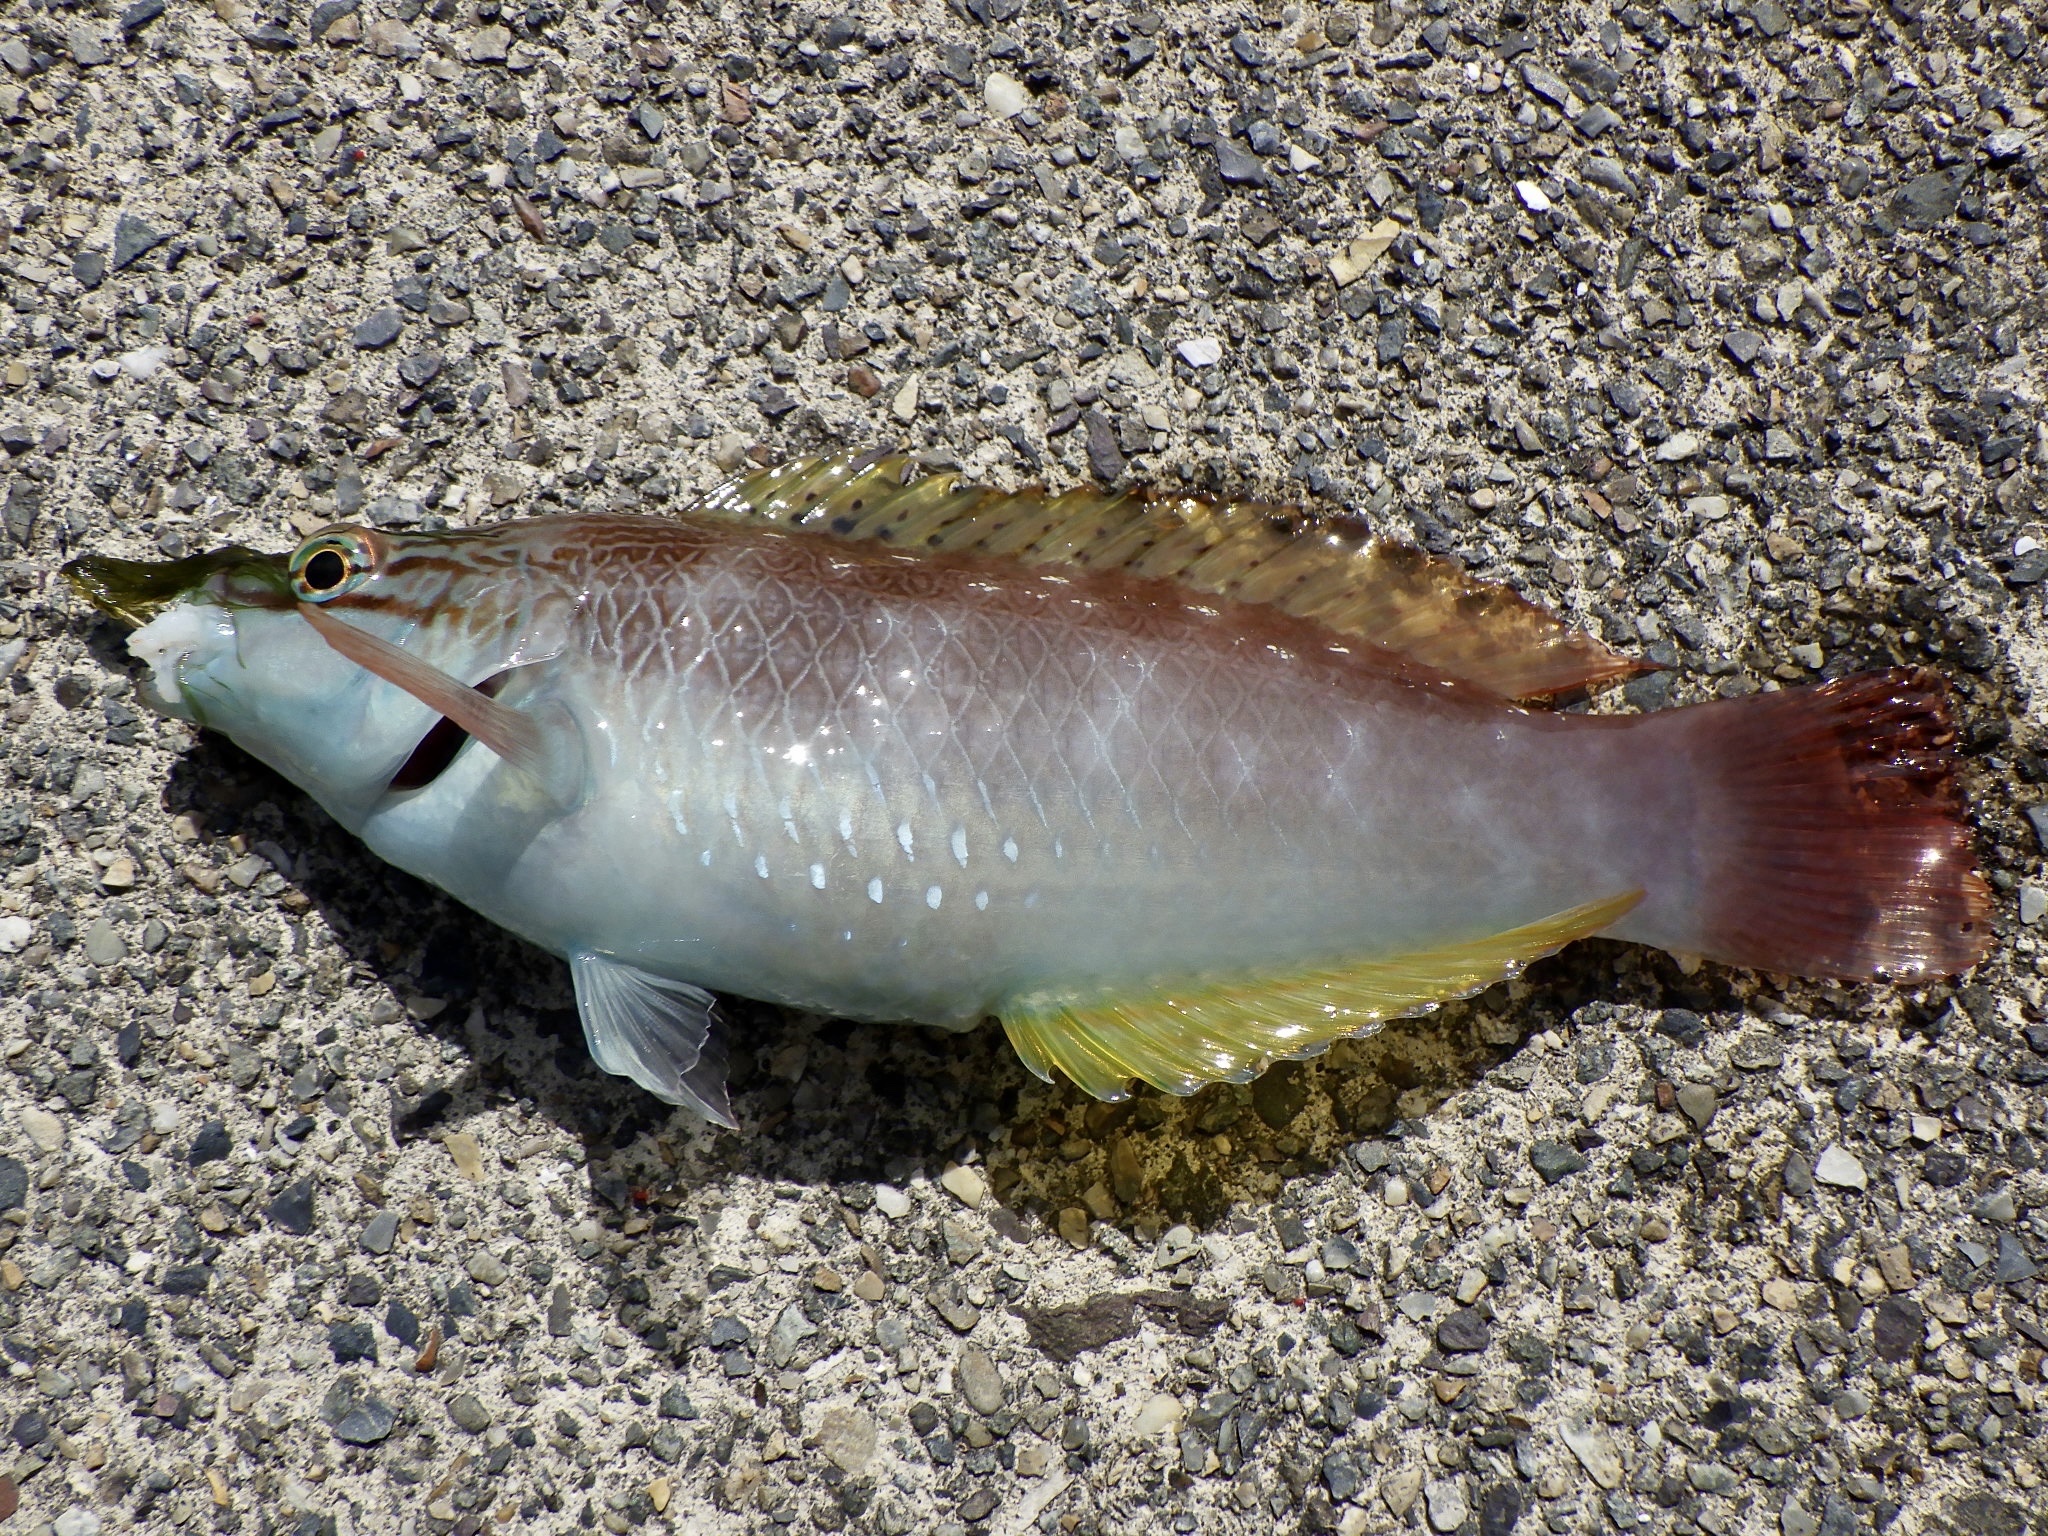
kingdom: Animalia
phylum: Chordata
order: Perciformes
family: Labridae
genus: Pseudolabrus
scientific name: Pseudolabrus sieboldi
